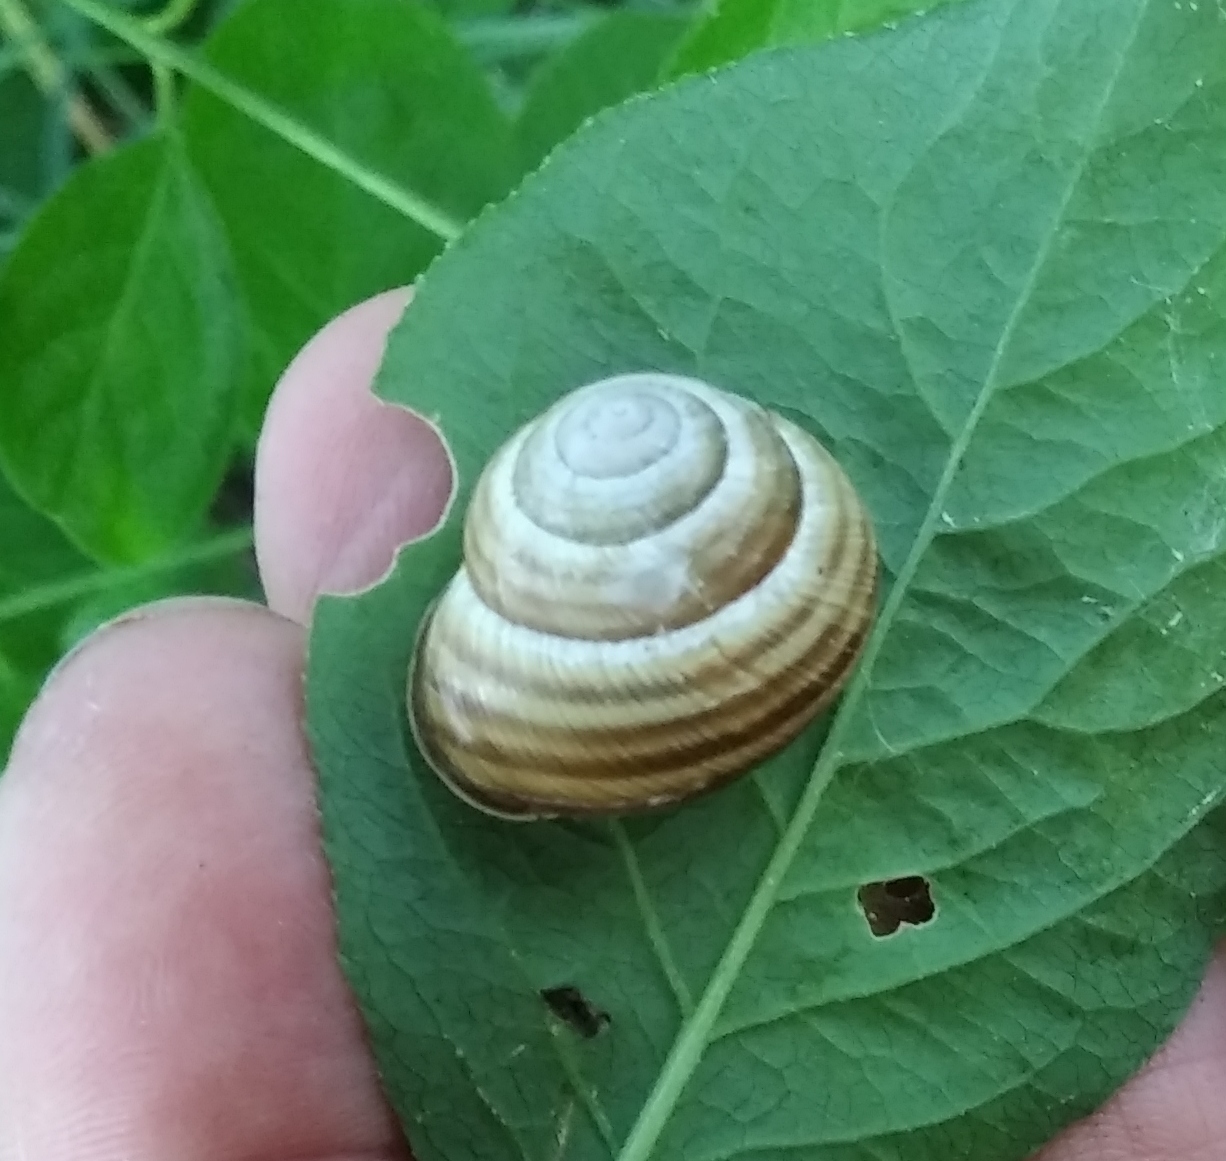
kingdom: Animalia
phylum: Mollusca
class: Gastropoda
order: Stylommatophora
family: Helicidae
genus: Caucasotachea
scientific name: Caucasotachea vindobonensis
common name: European helicid land snail
